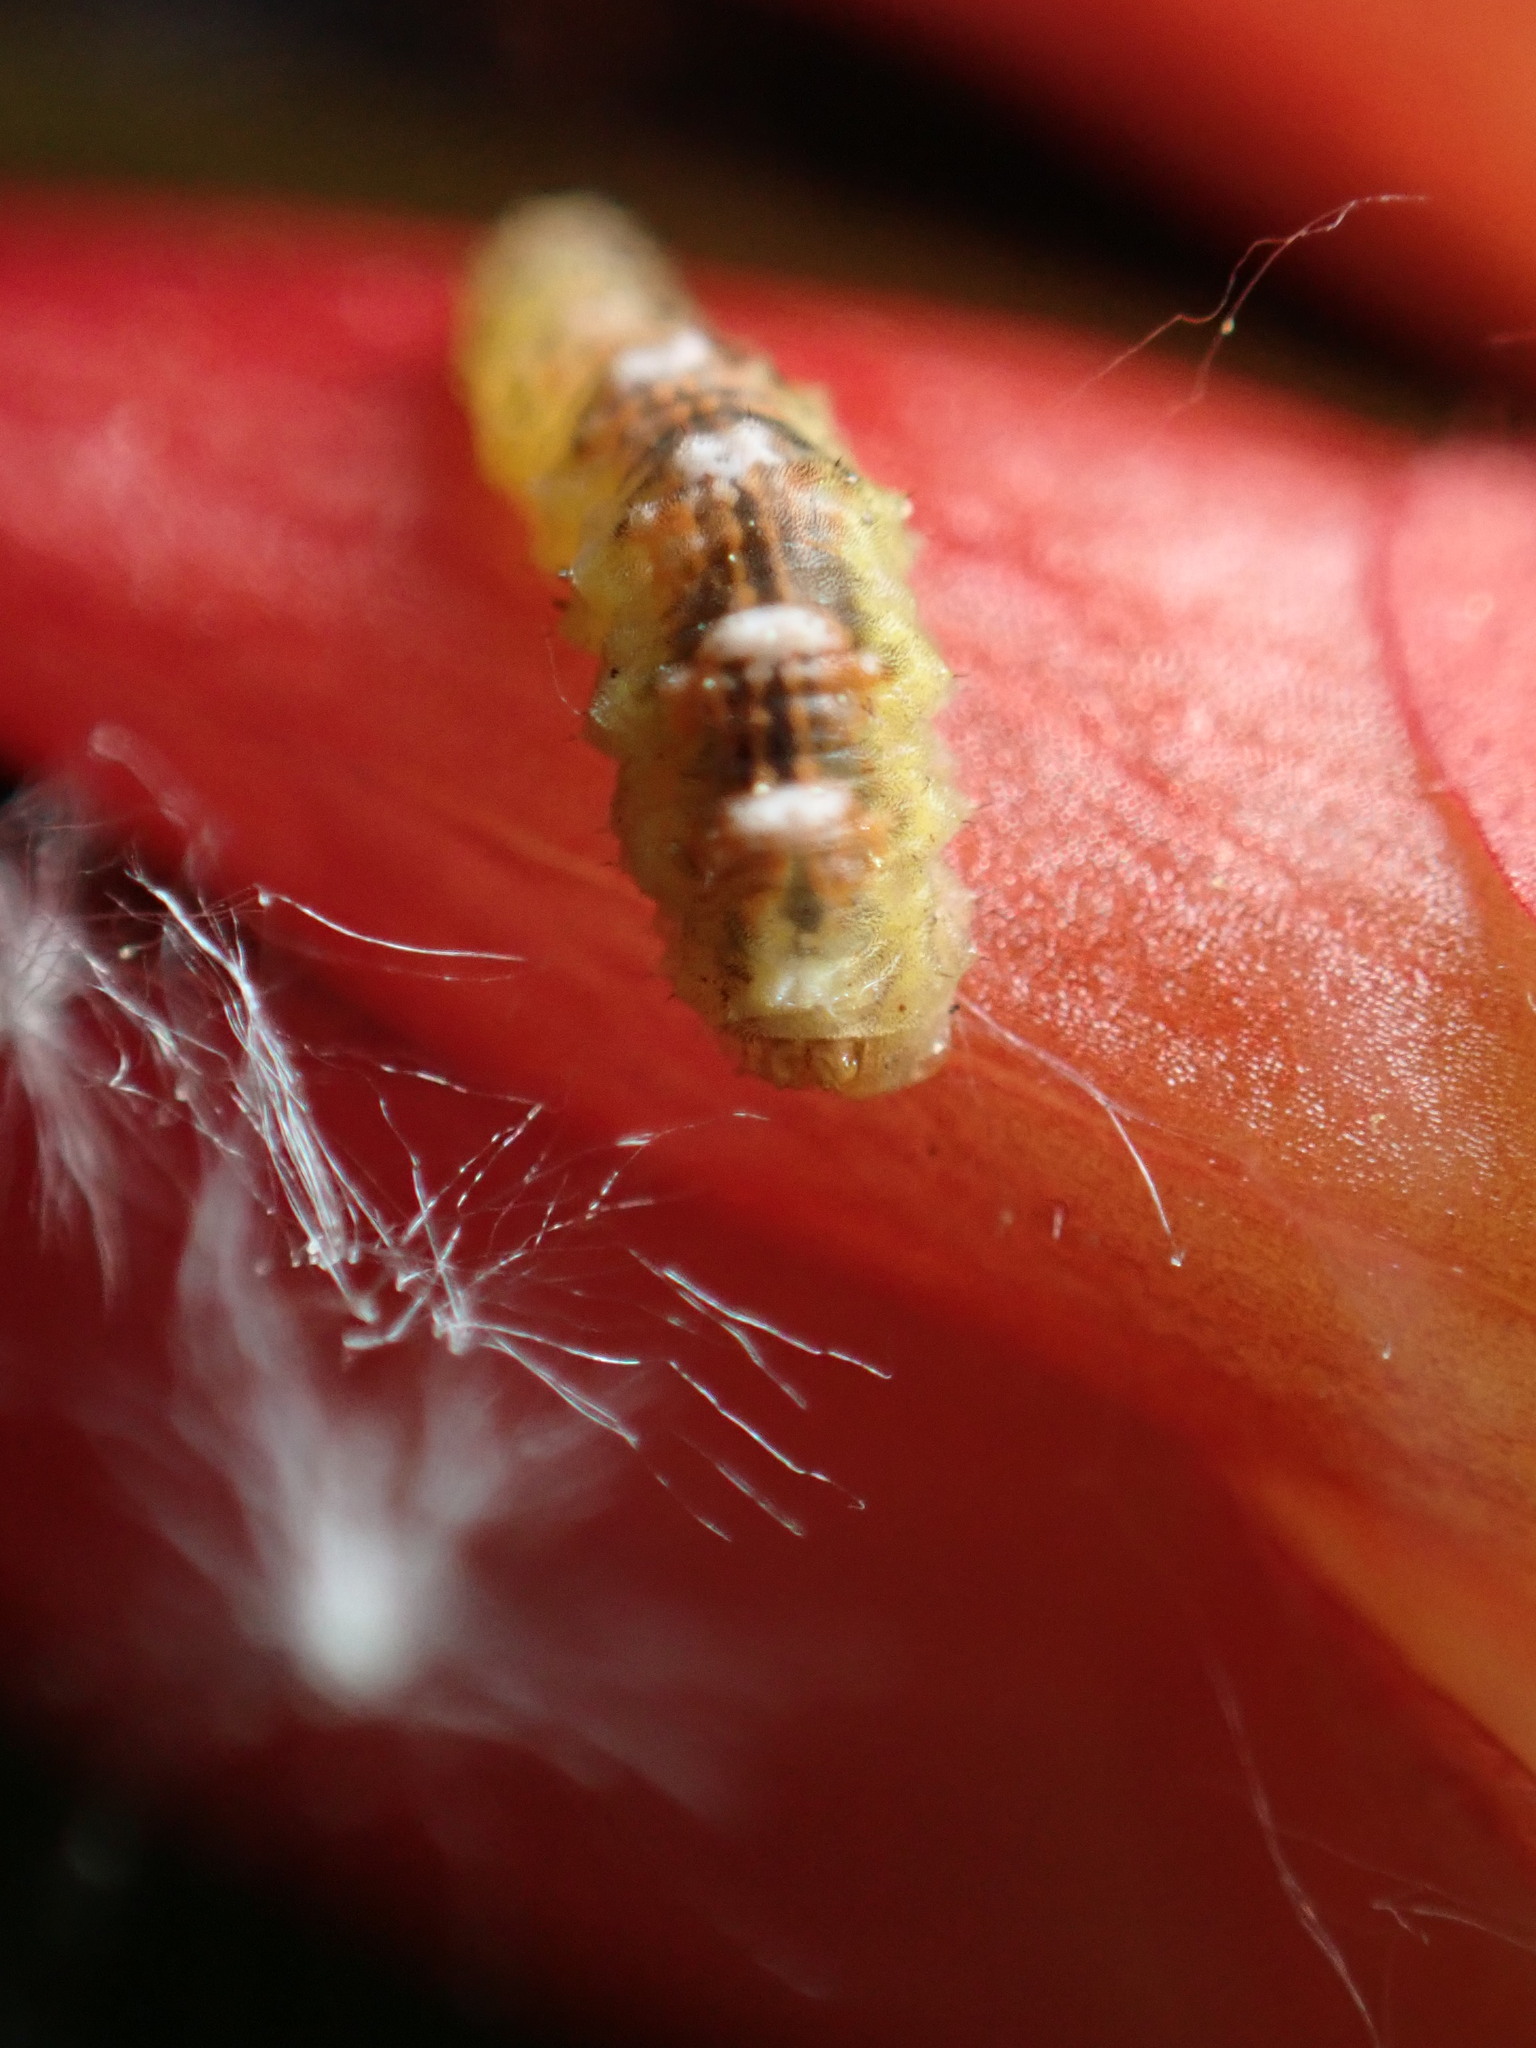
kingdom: Animalia
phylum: Arthropoda
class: Insecta
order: Diptera
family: Syrphidae
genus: Eupeodes
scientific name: Eupeodes pomus
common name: Short-tailed aphideater
